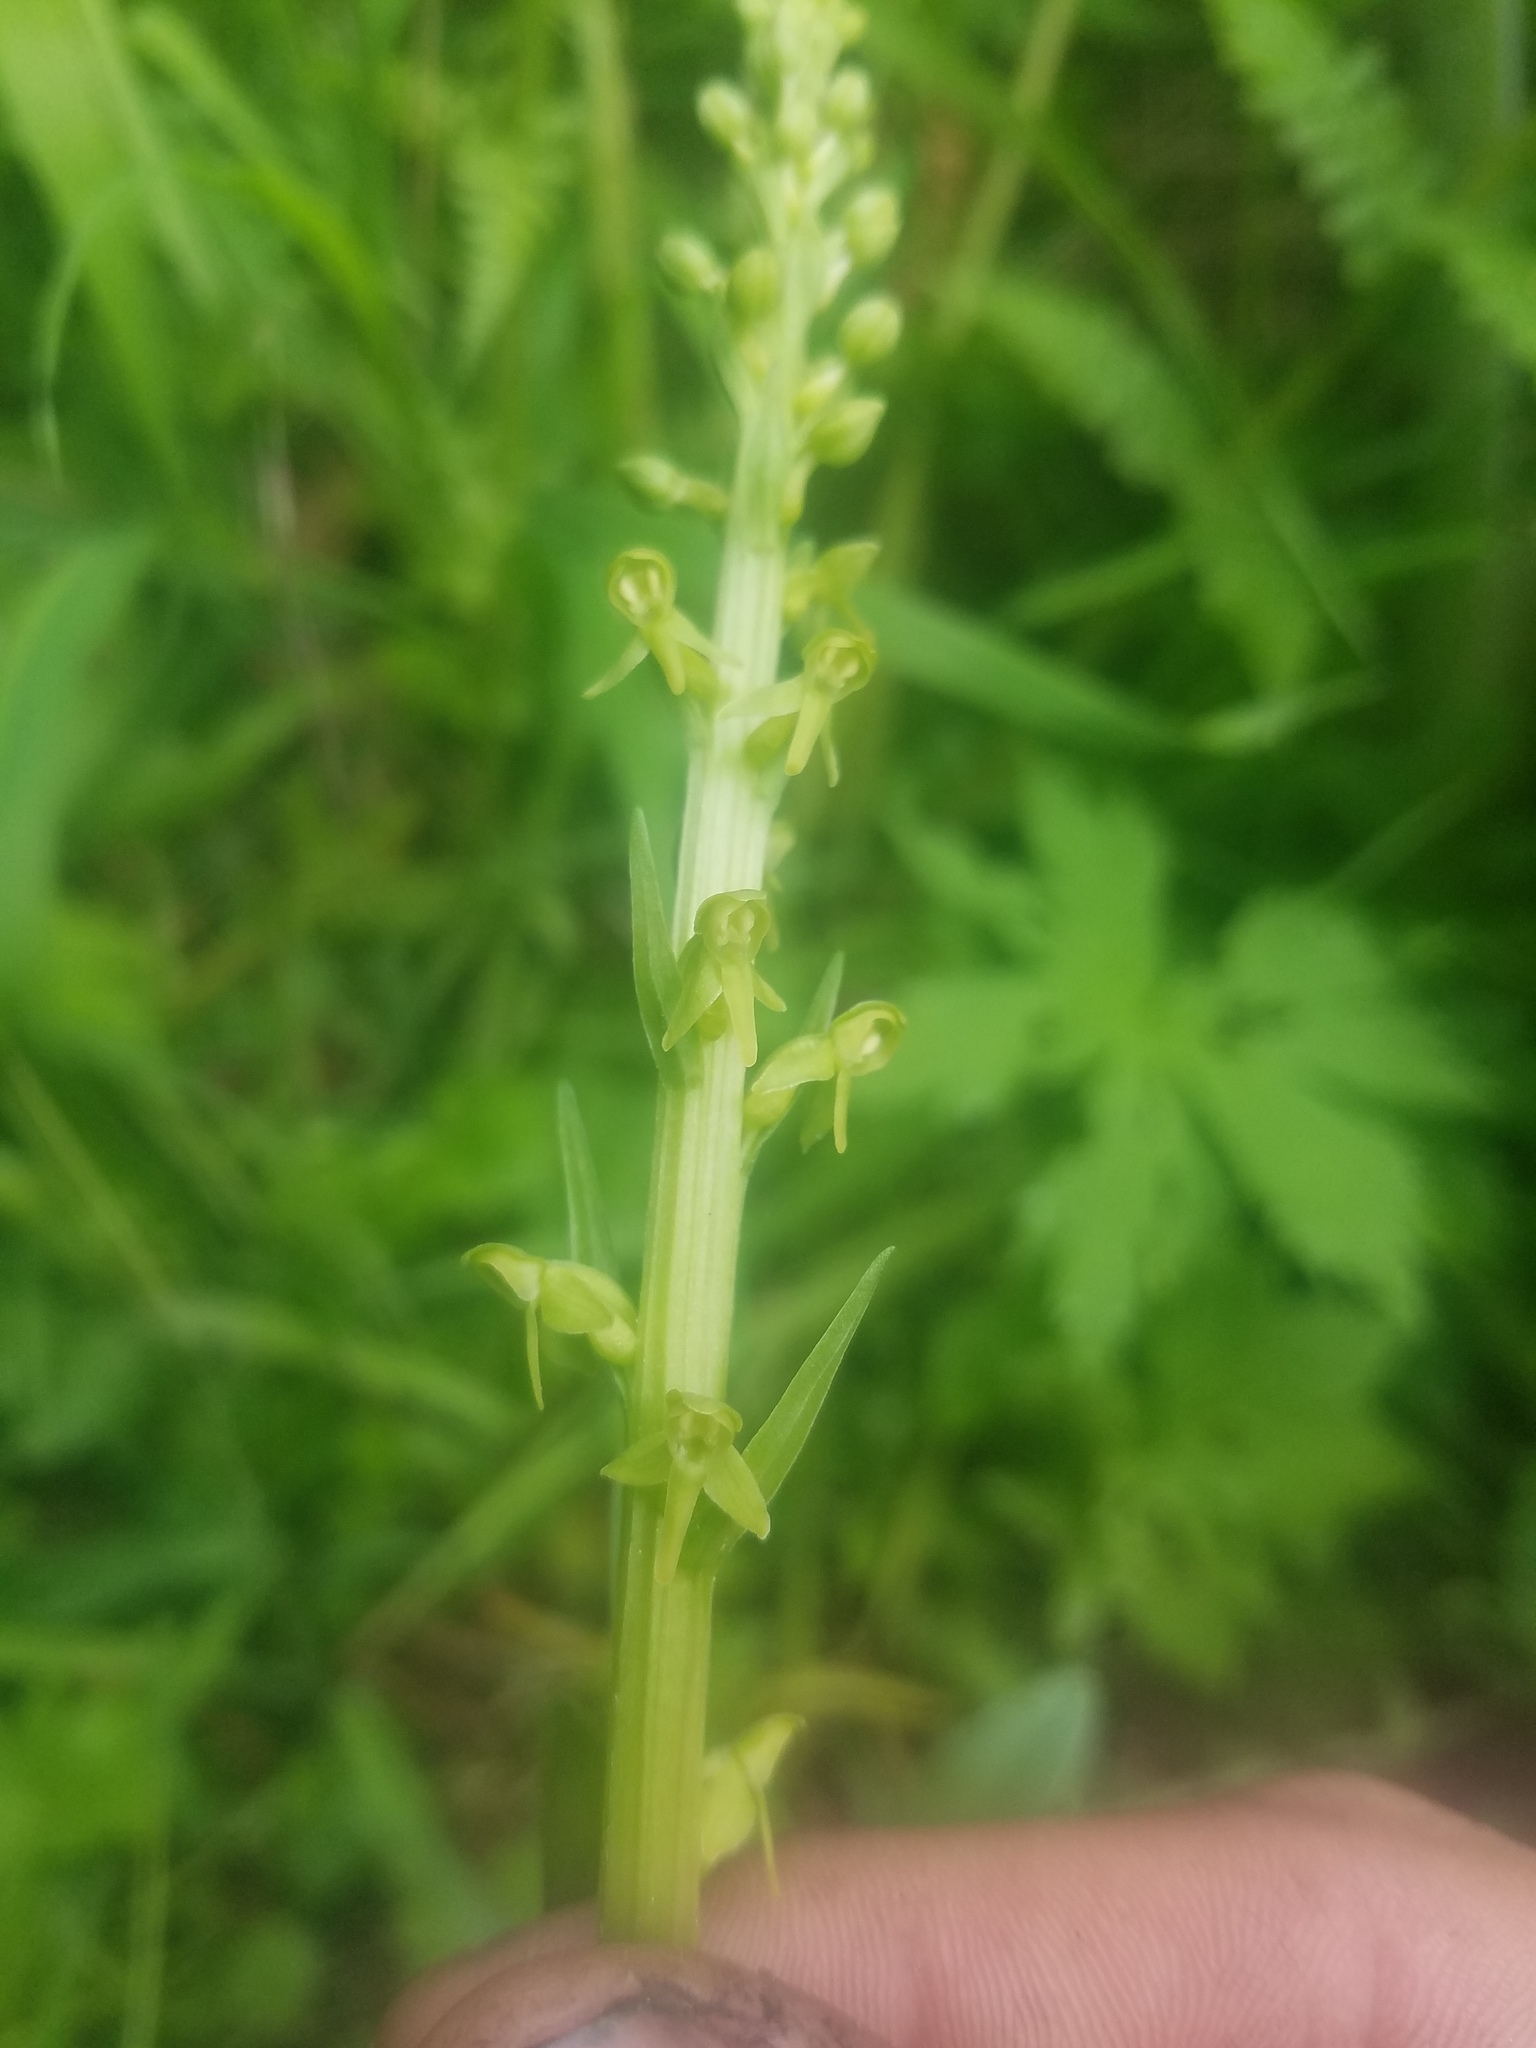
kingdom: Plantae
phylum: Tracheophyta
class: Liliopsida
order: Asparagales
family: Orchidaceae
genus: Platanthera
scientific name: Platanthera stricta
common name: Slender bog orchid
